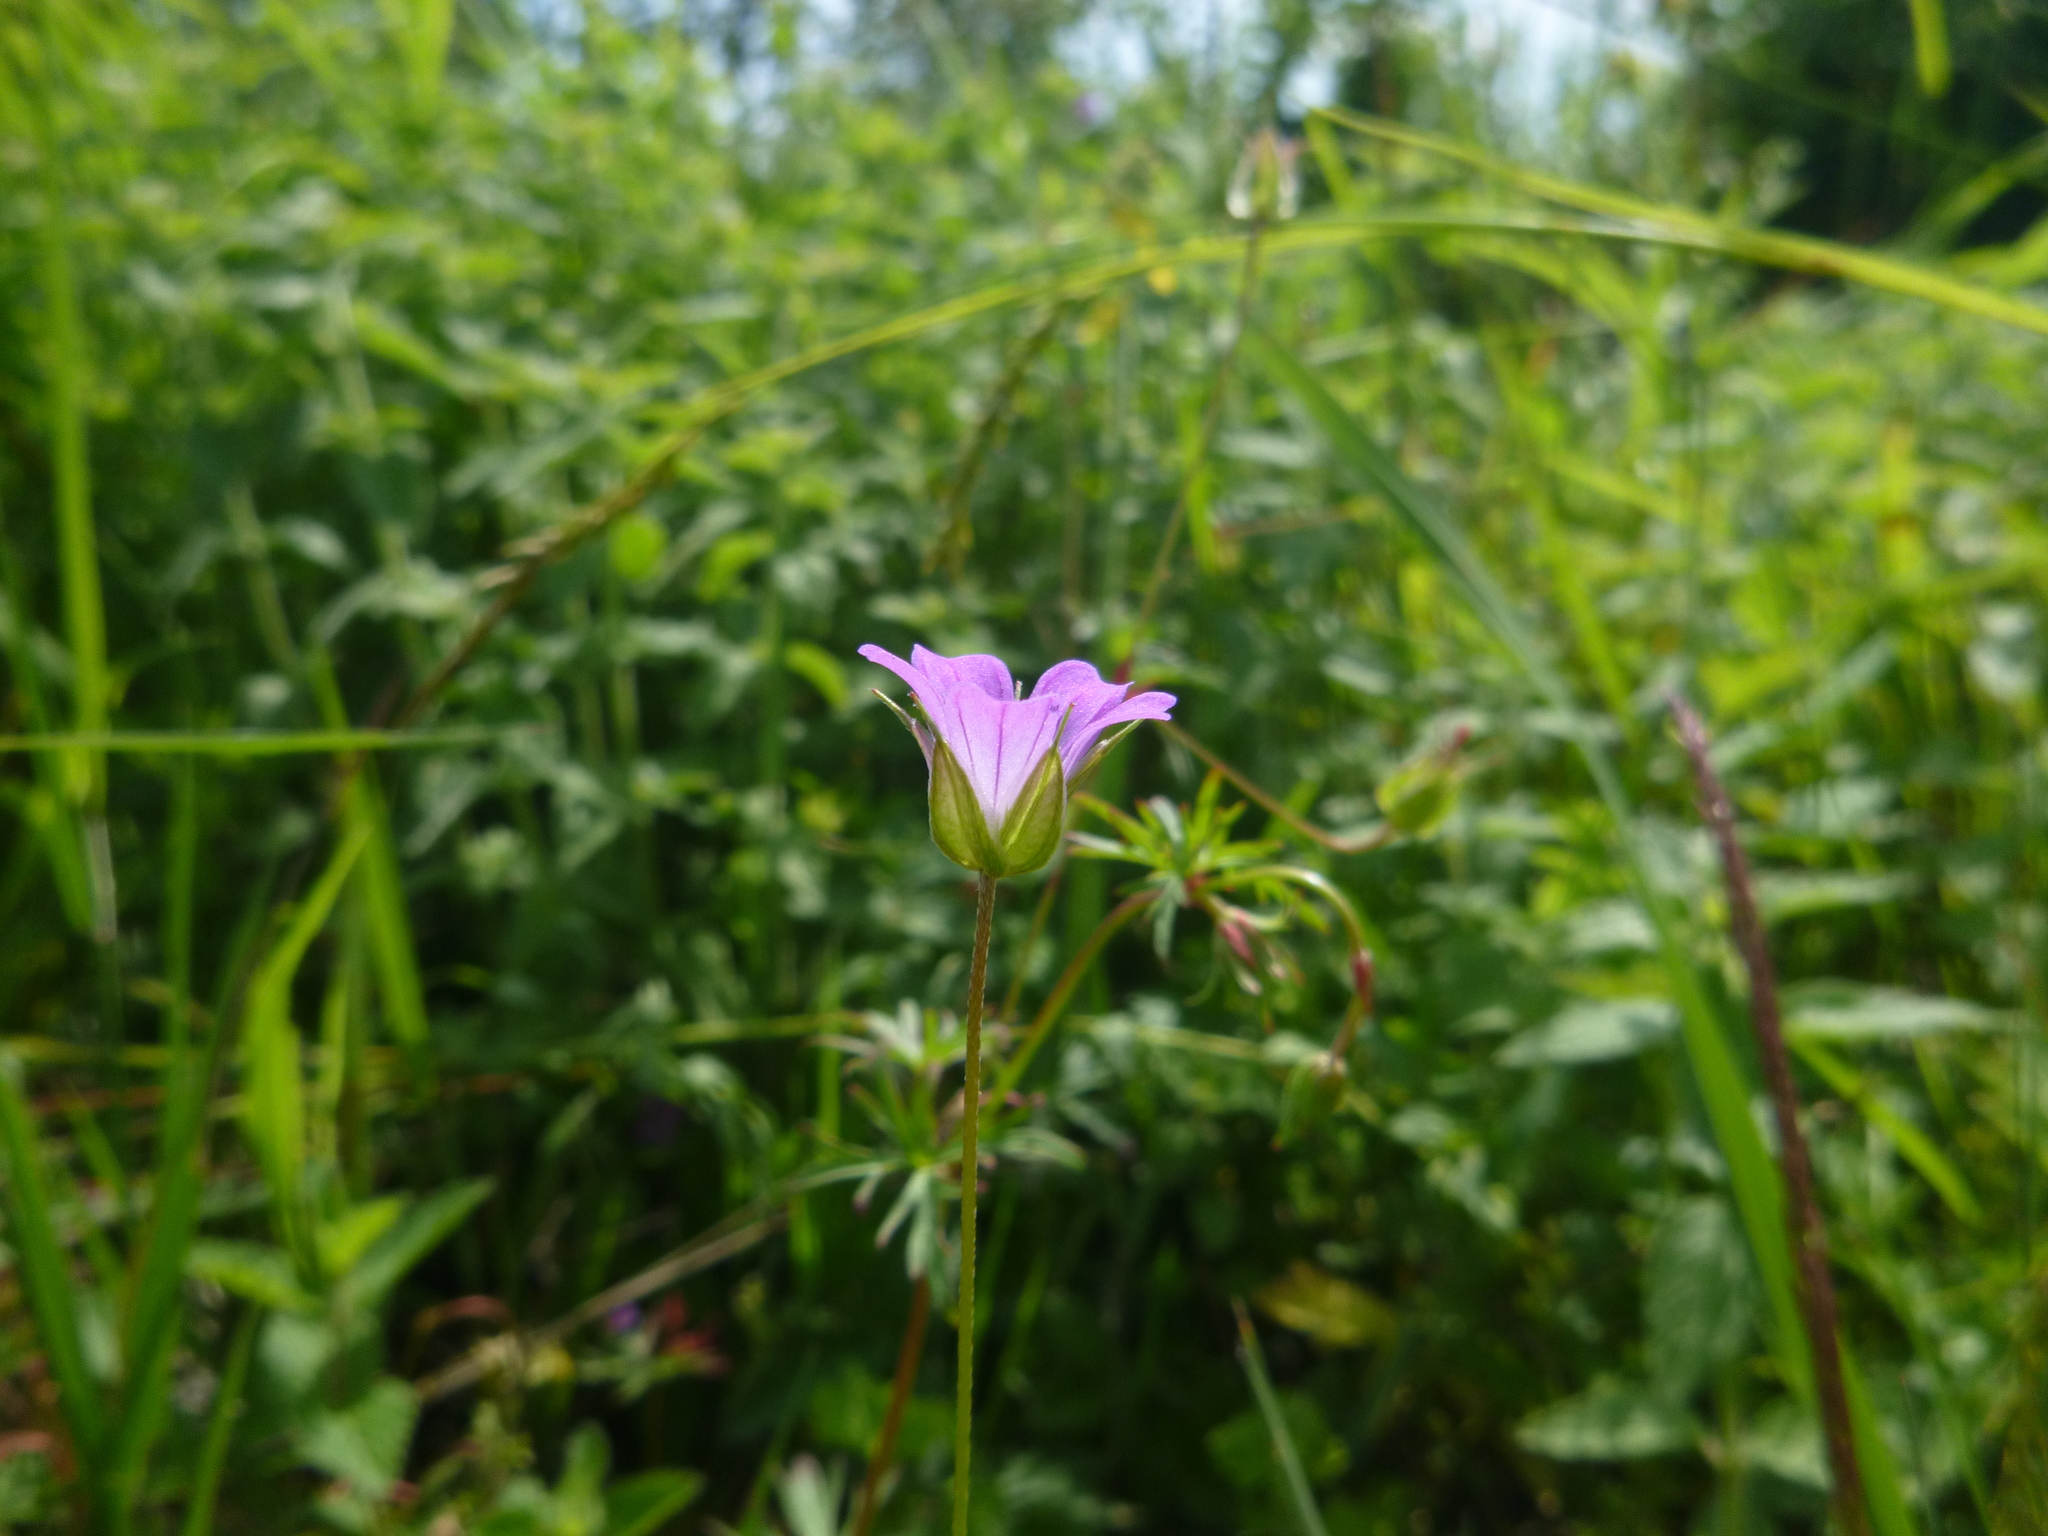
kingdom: Plantae
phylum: Tracheophyta
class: Magnoliopsida
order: Geraniales
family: Geraniaceae
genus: Geranium
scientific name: Geranium columbinum
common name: Long-stalked crane's-bill
